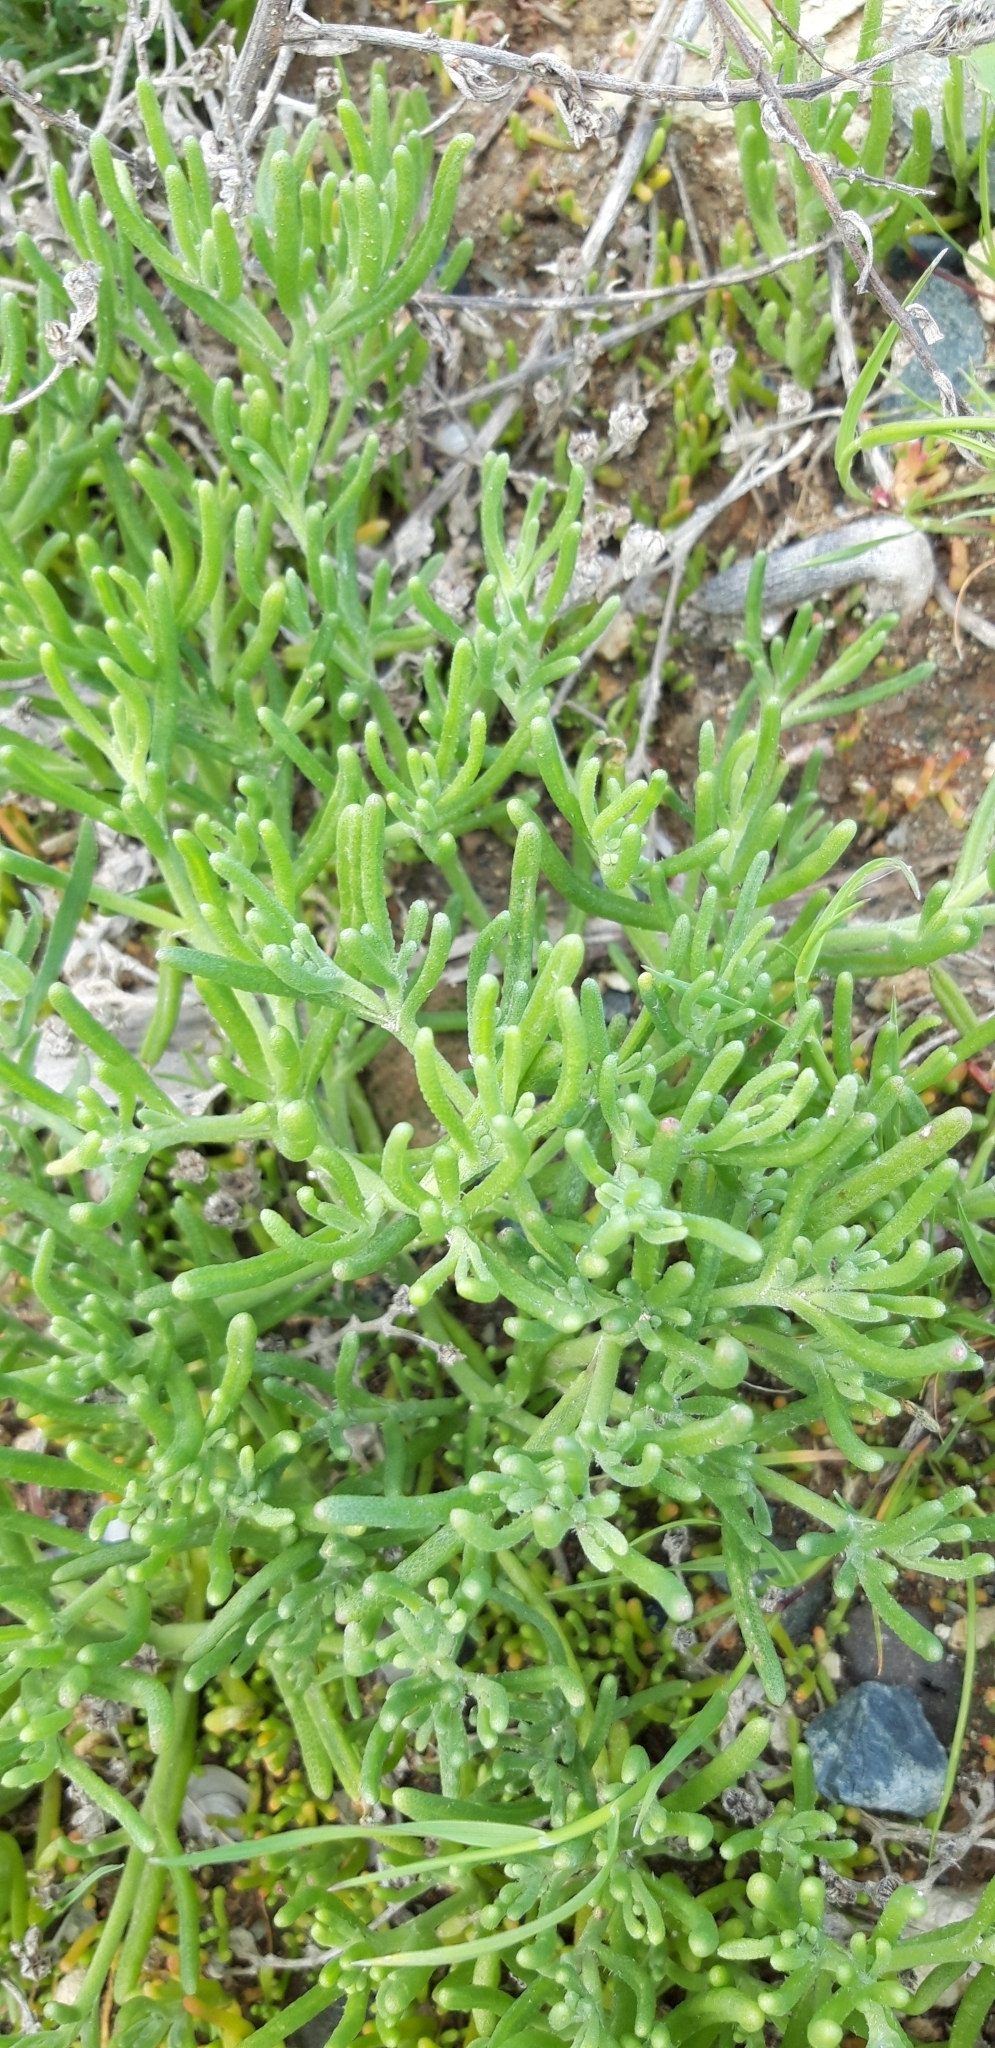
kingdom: Plantae
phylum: Tracheophyta
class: Magnoliopsida
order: Caryophyllales
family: Aizoaceae
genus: Mesembryanthemum
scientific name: Mesembryanthemum nodiflorum
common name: Slenderleaf iceplant
